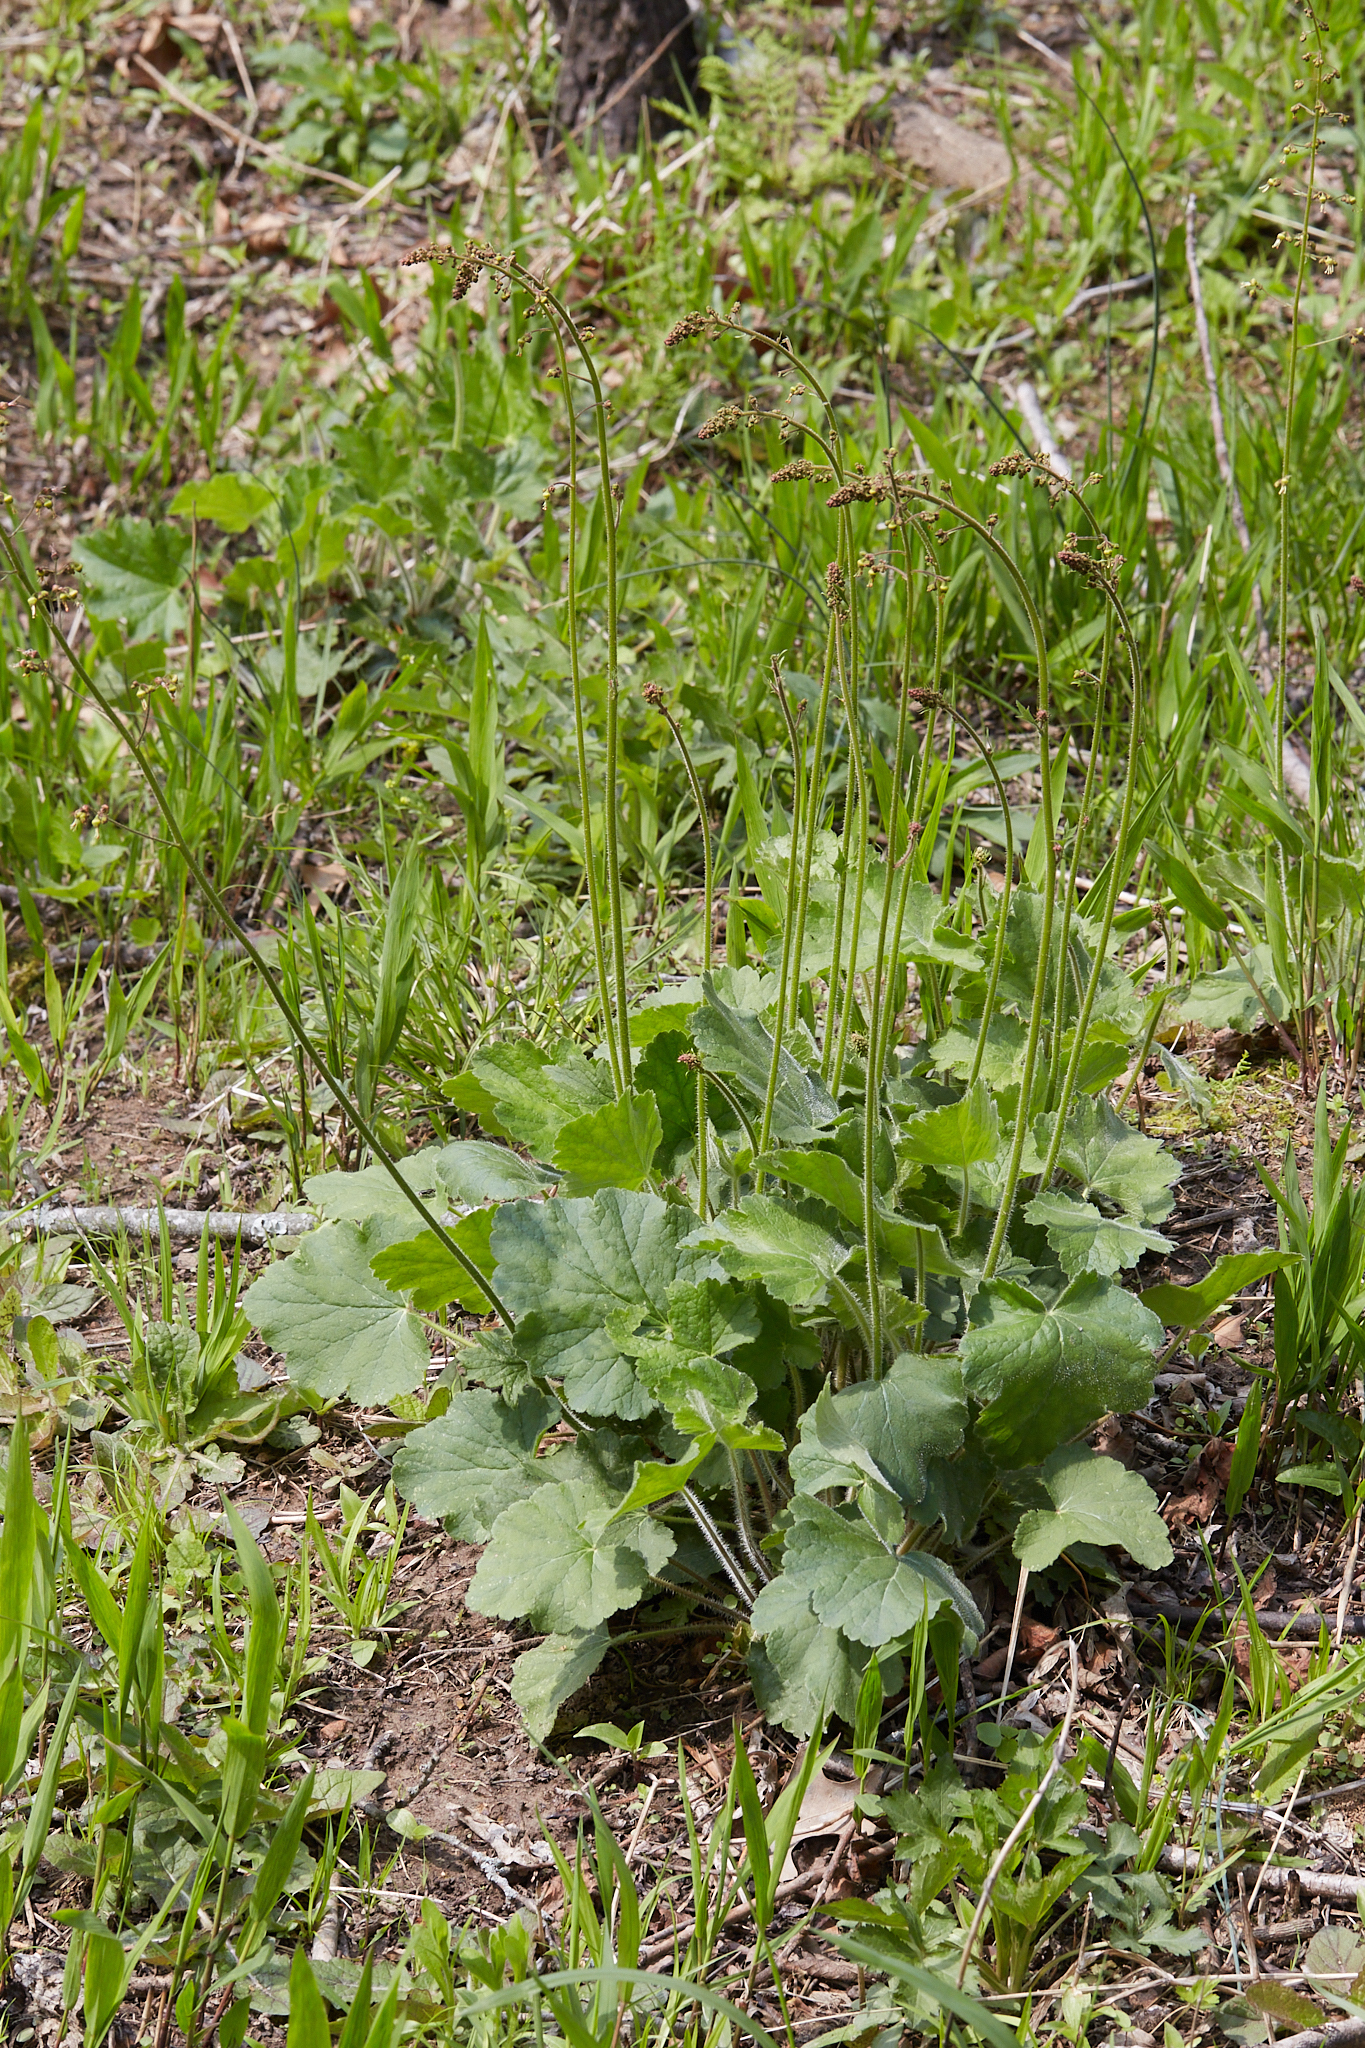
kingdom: Plantae
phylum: Tracheophyta
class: Magnoliopsida
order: Saxifragales
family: Saxifragaceae
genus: Heuchera
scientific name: Heuchera americana
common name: Alumroot
